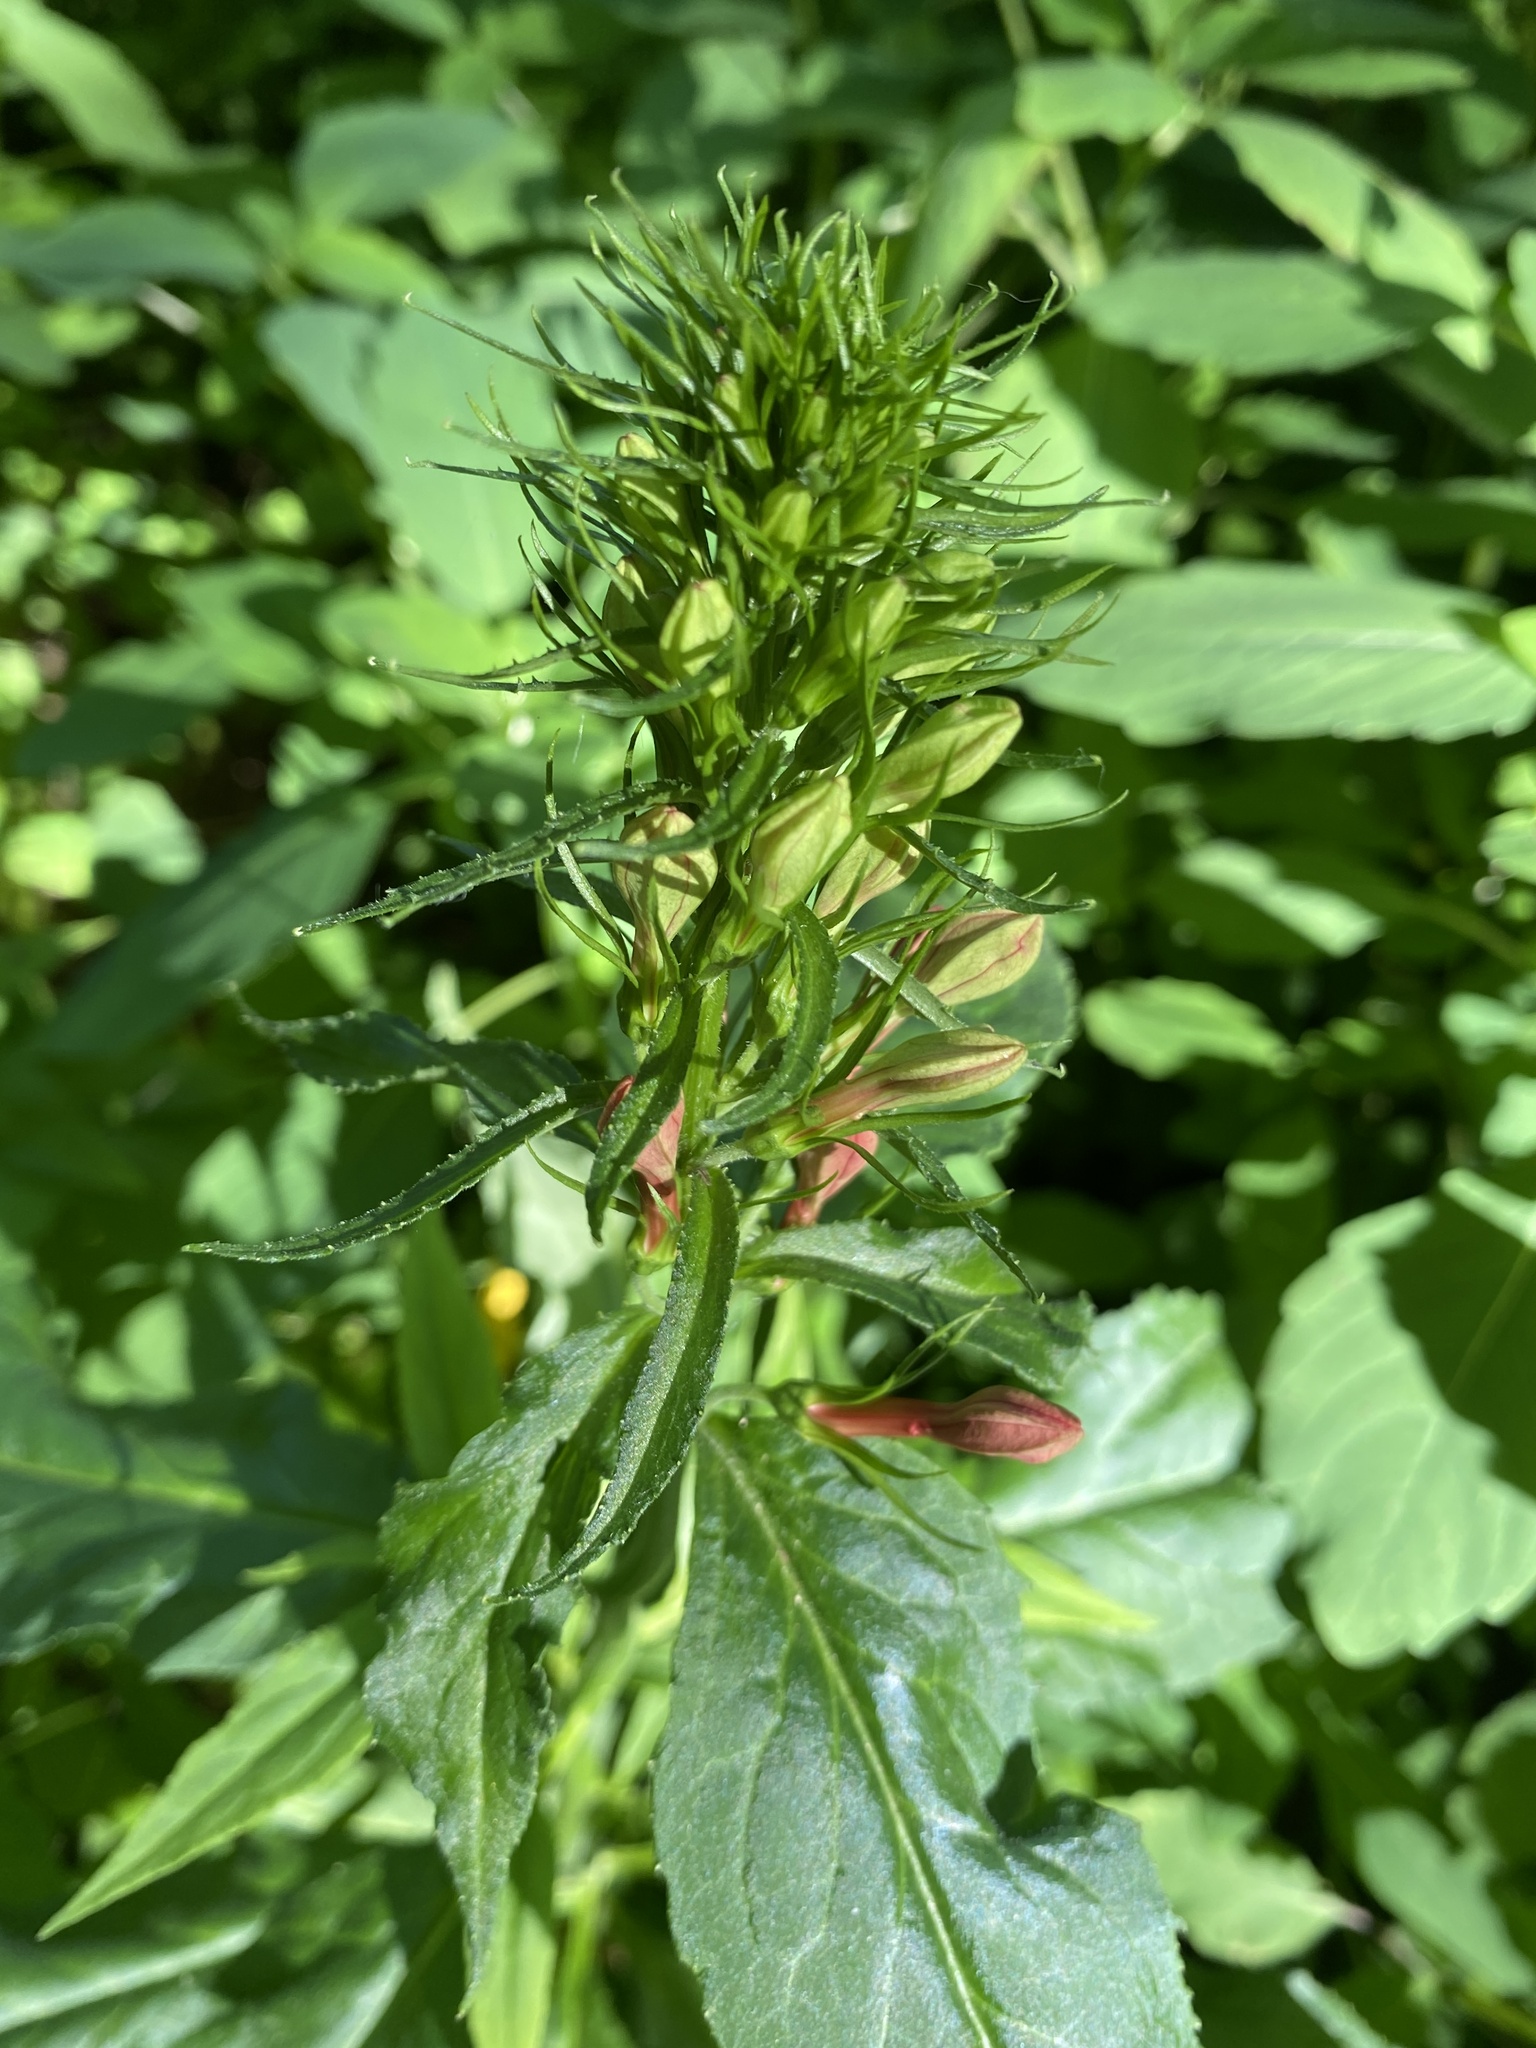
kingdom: Plantae
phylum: Tracheophyta
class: Magnoliopsida
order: Asterales
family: Campanulaceae
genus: Lobelia
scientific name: Lobelia cardinalis
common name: Cardinal flower
